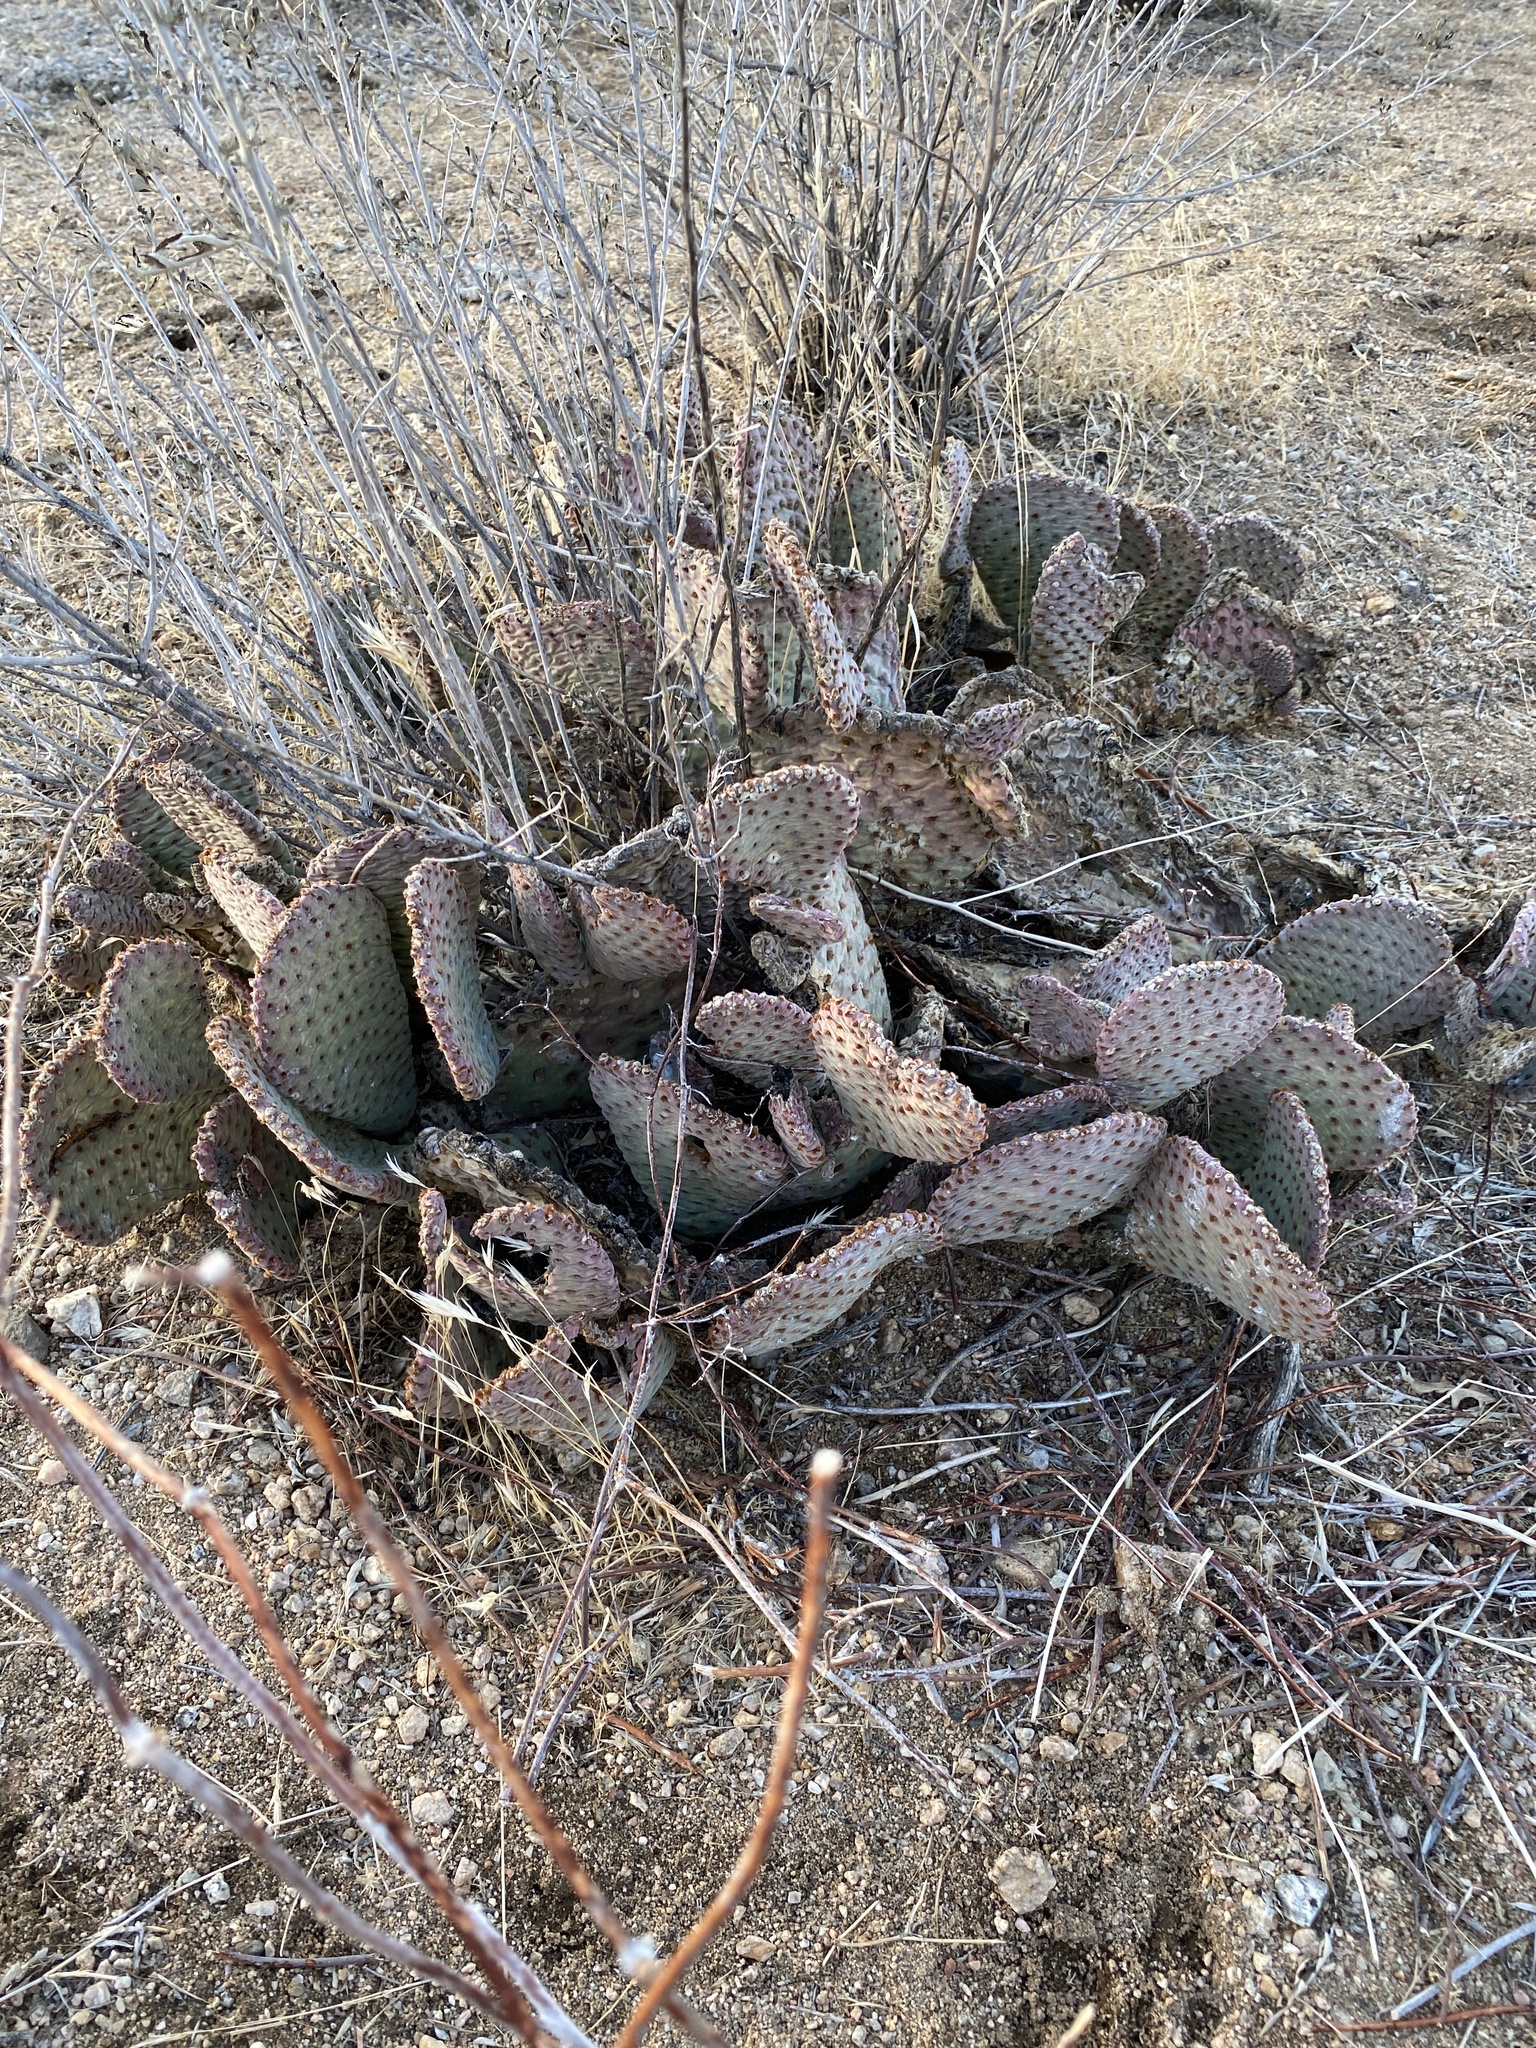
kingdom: Plantae
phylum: Tracheophyta
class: Magnoliopsida
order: Caryophyllales
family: Cactaceae
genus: Opuntia
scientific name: Opuntia basilaris
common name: Beavertail prickly-pear
